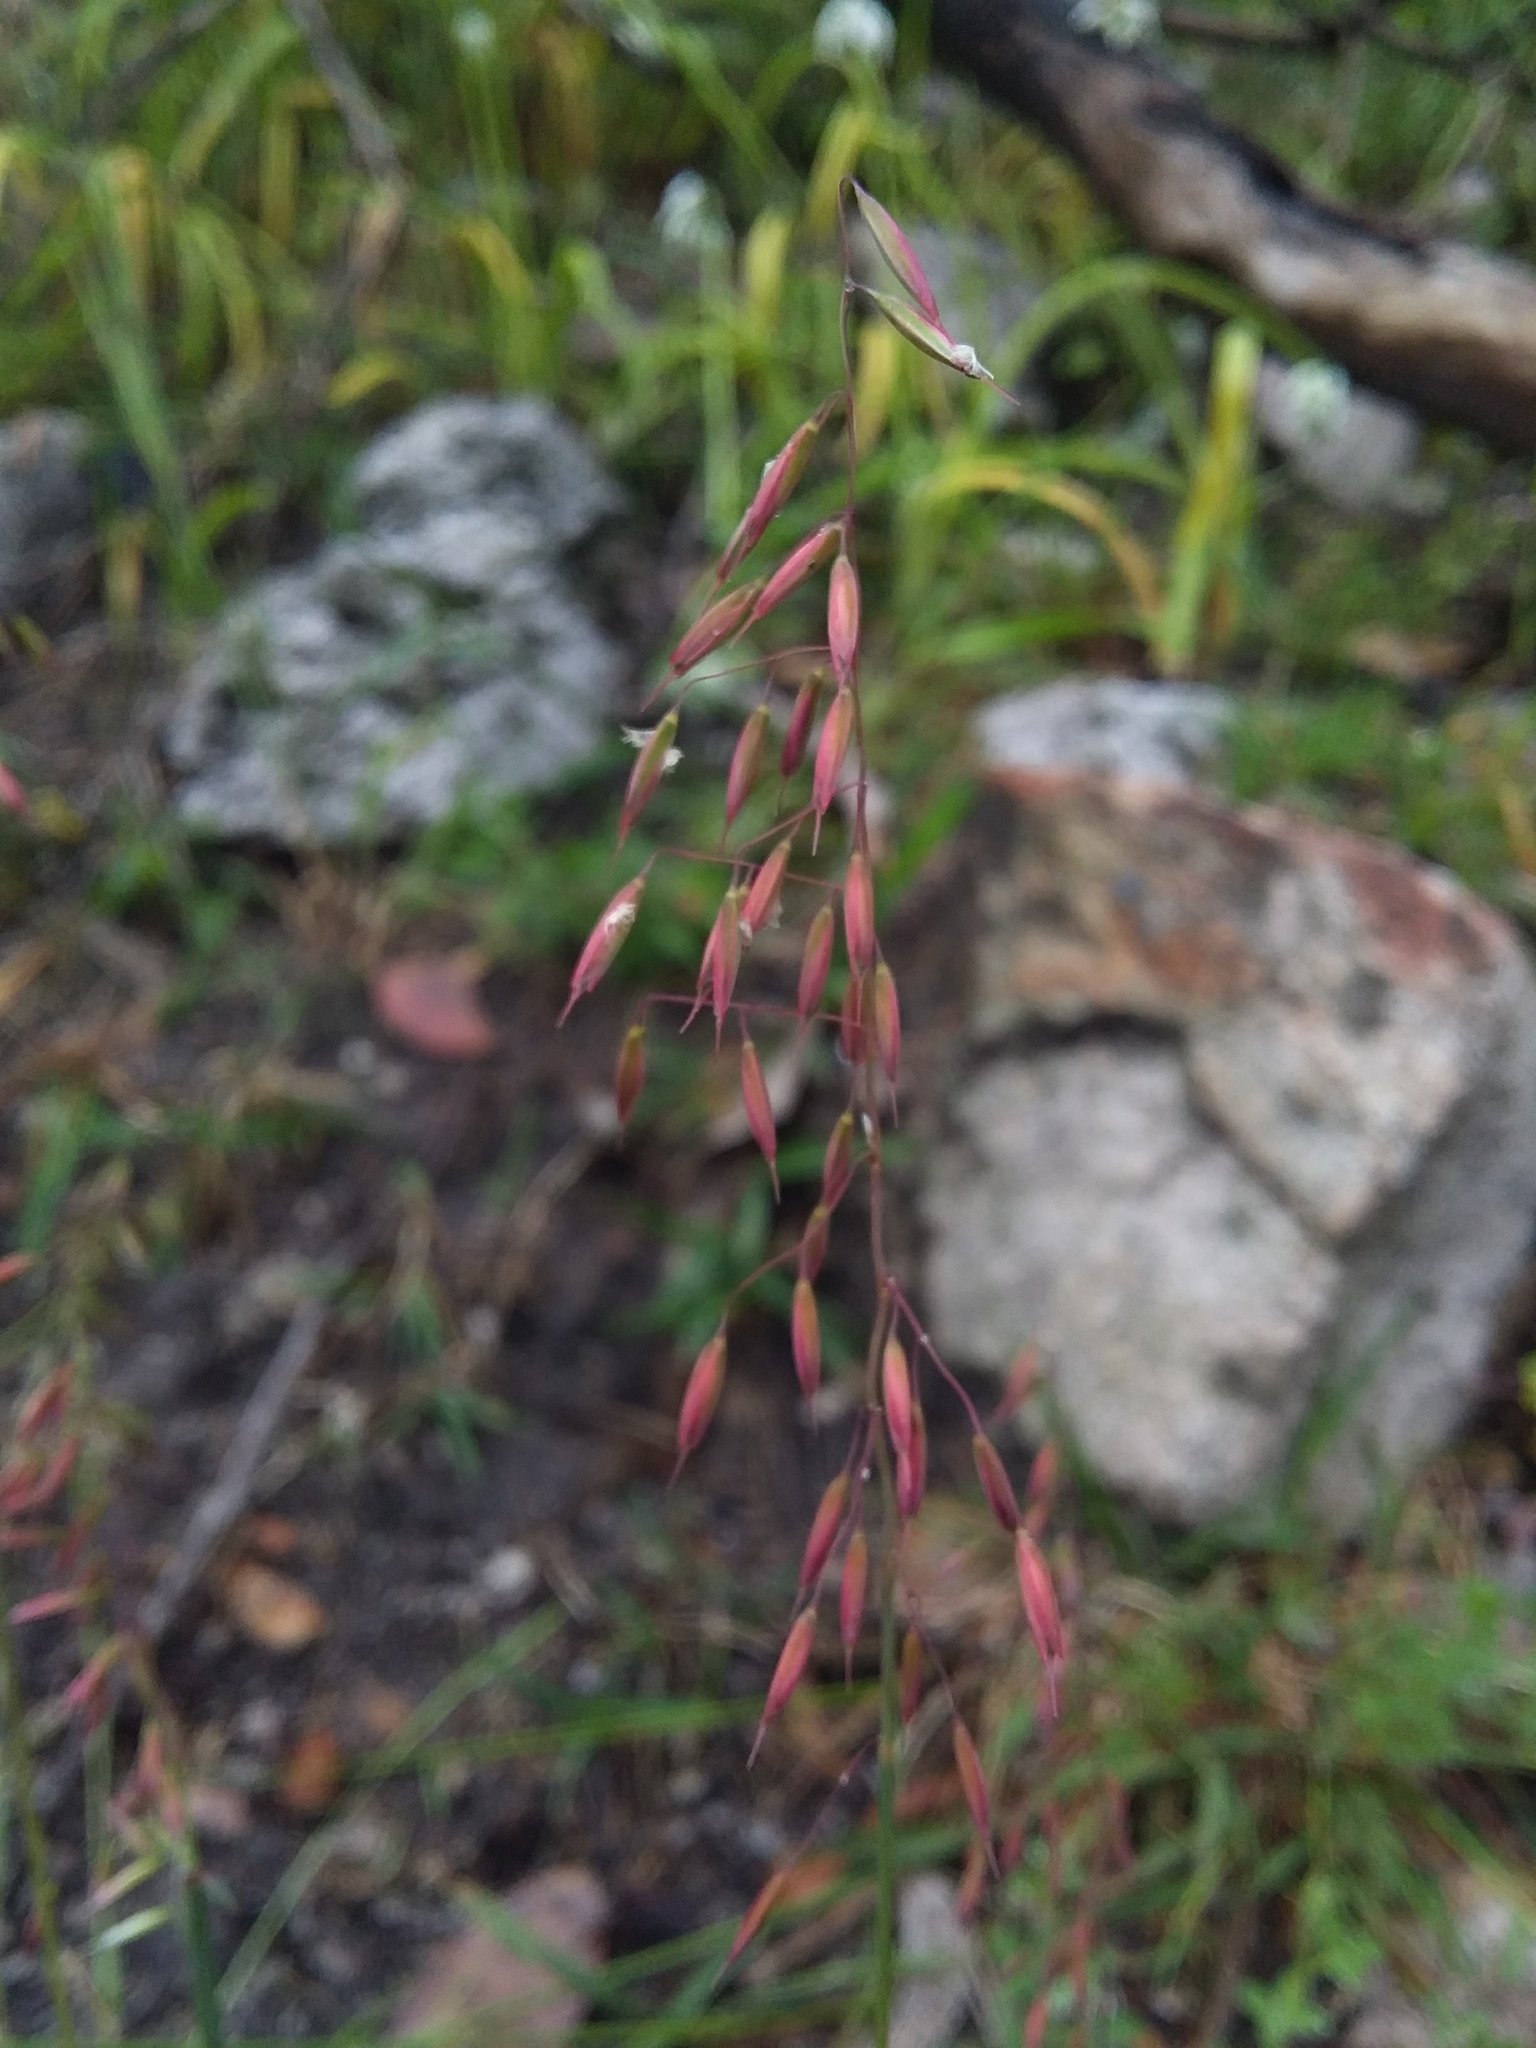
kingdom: Plantae
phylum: Tracheophyta
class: Liliopsida
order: Poales
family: Poaceae
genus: Ehrharta
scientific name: Ehrharta calycina
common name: Perennial veldtgrass
